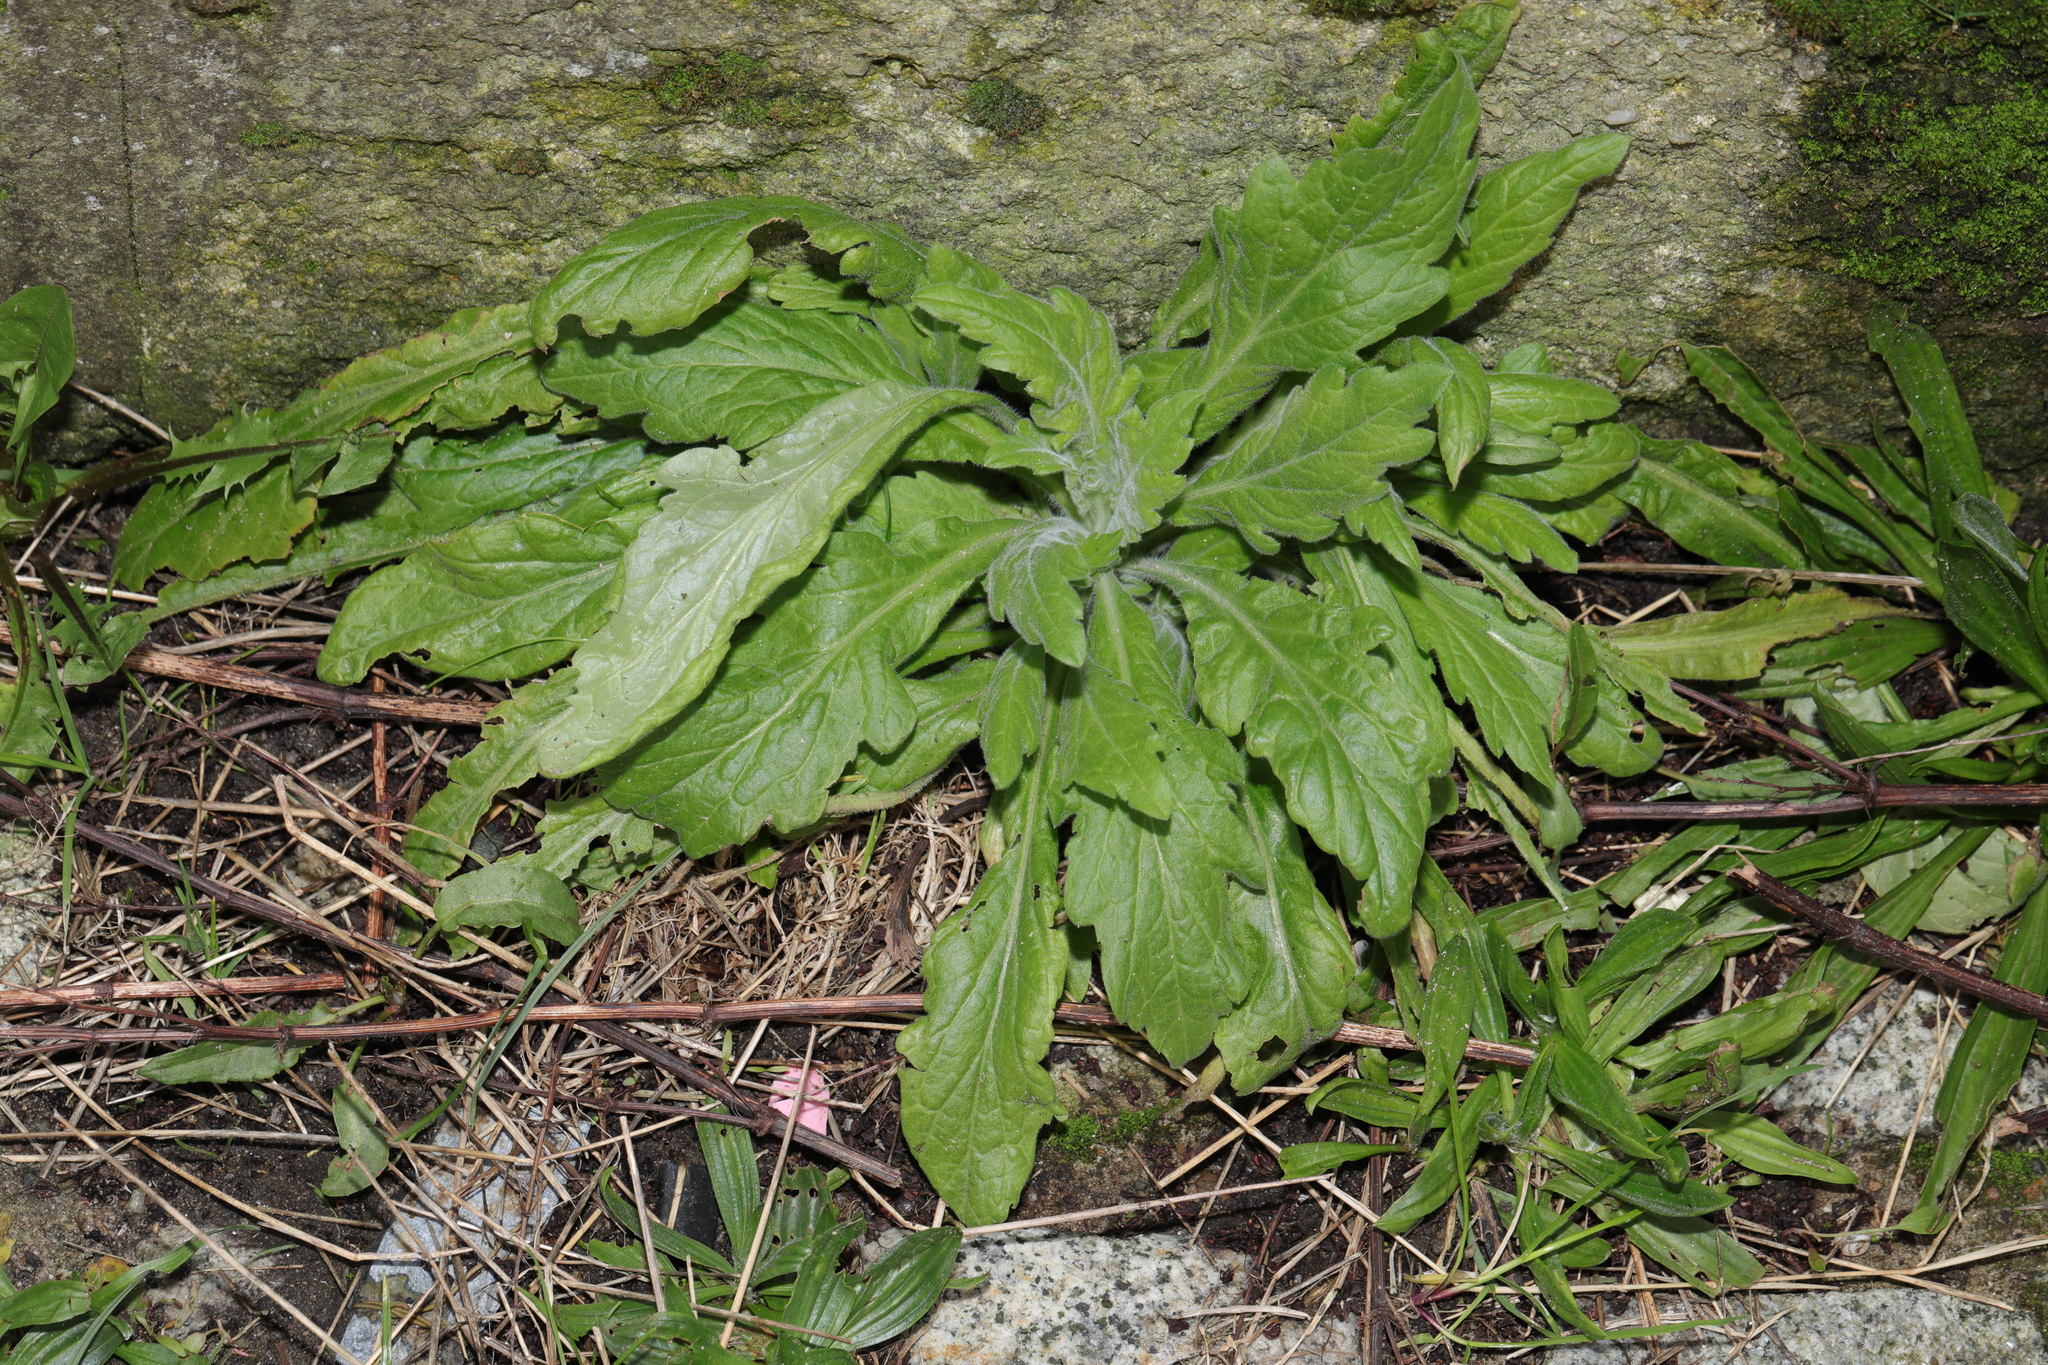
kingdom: Plantae
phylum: Tracheophyta
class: Magnoliopsida
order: Asterales
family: Asteraceae
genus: Erigeron
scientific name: Erigeron sumatrensis
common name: Daisy
